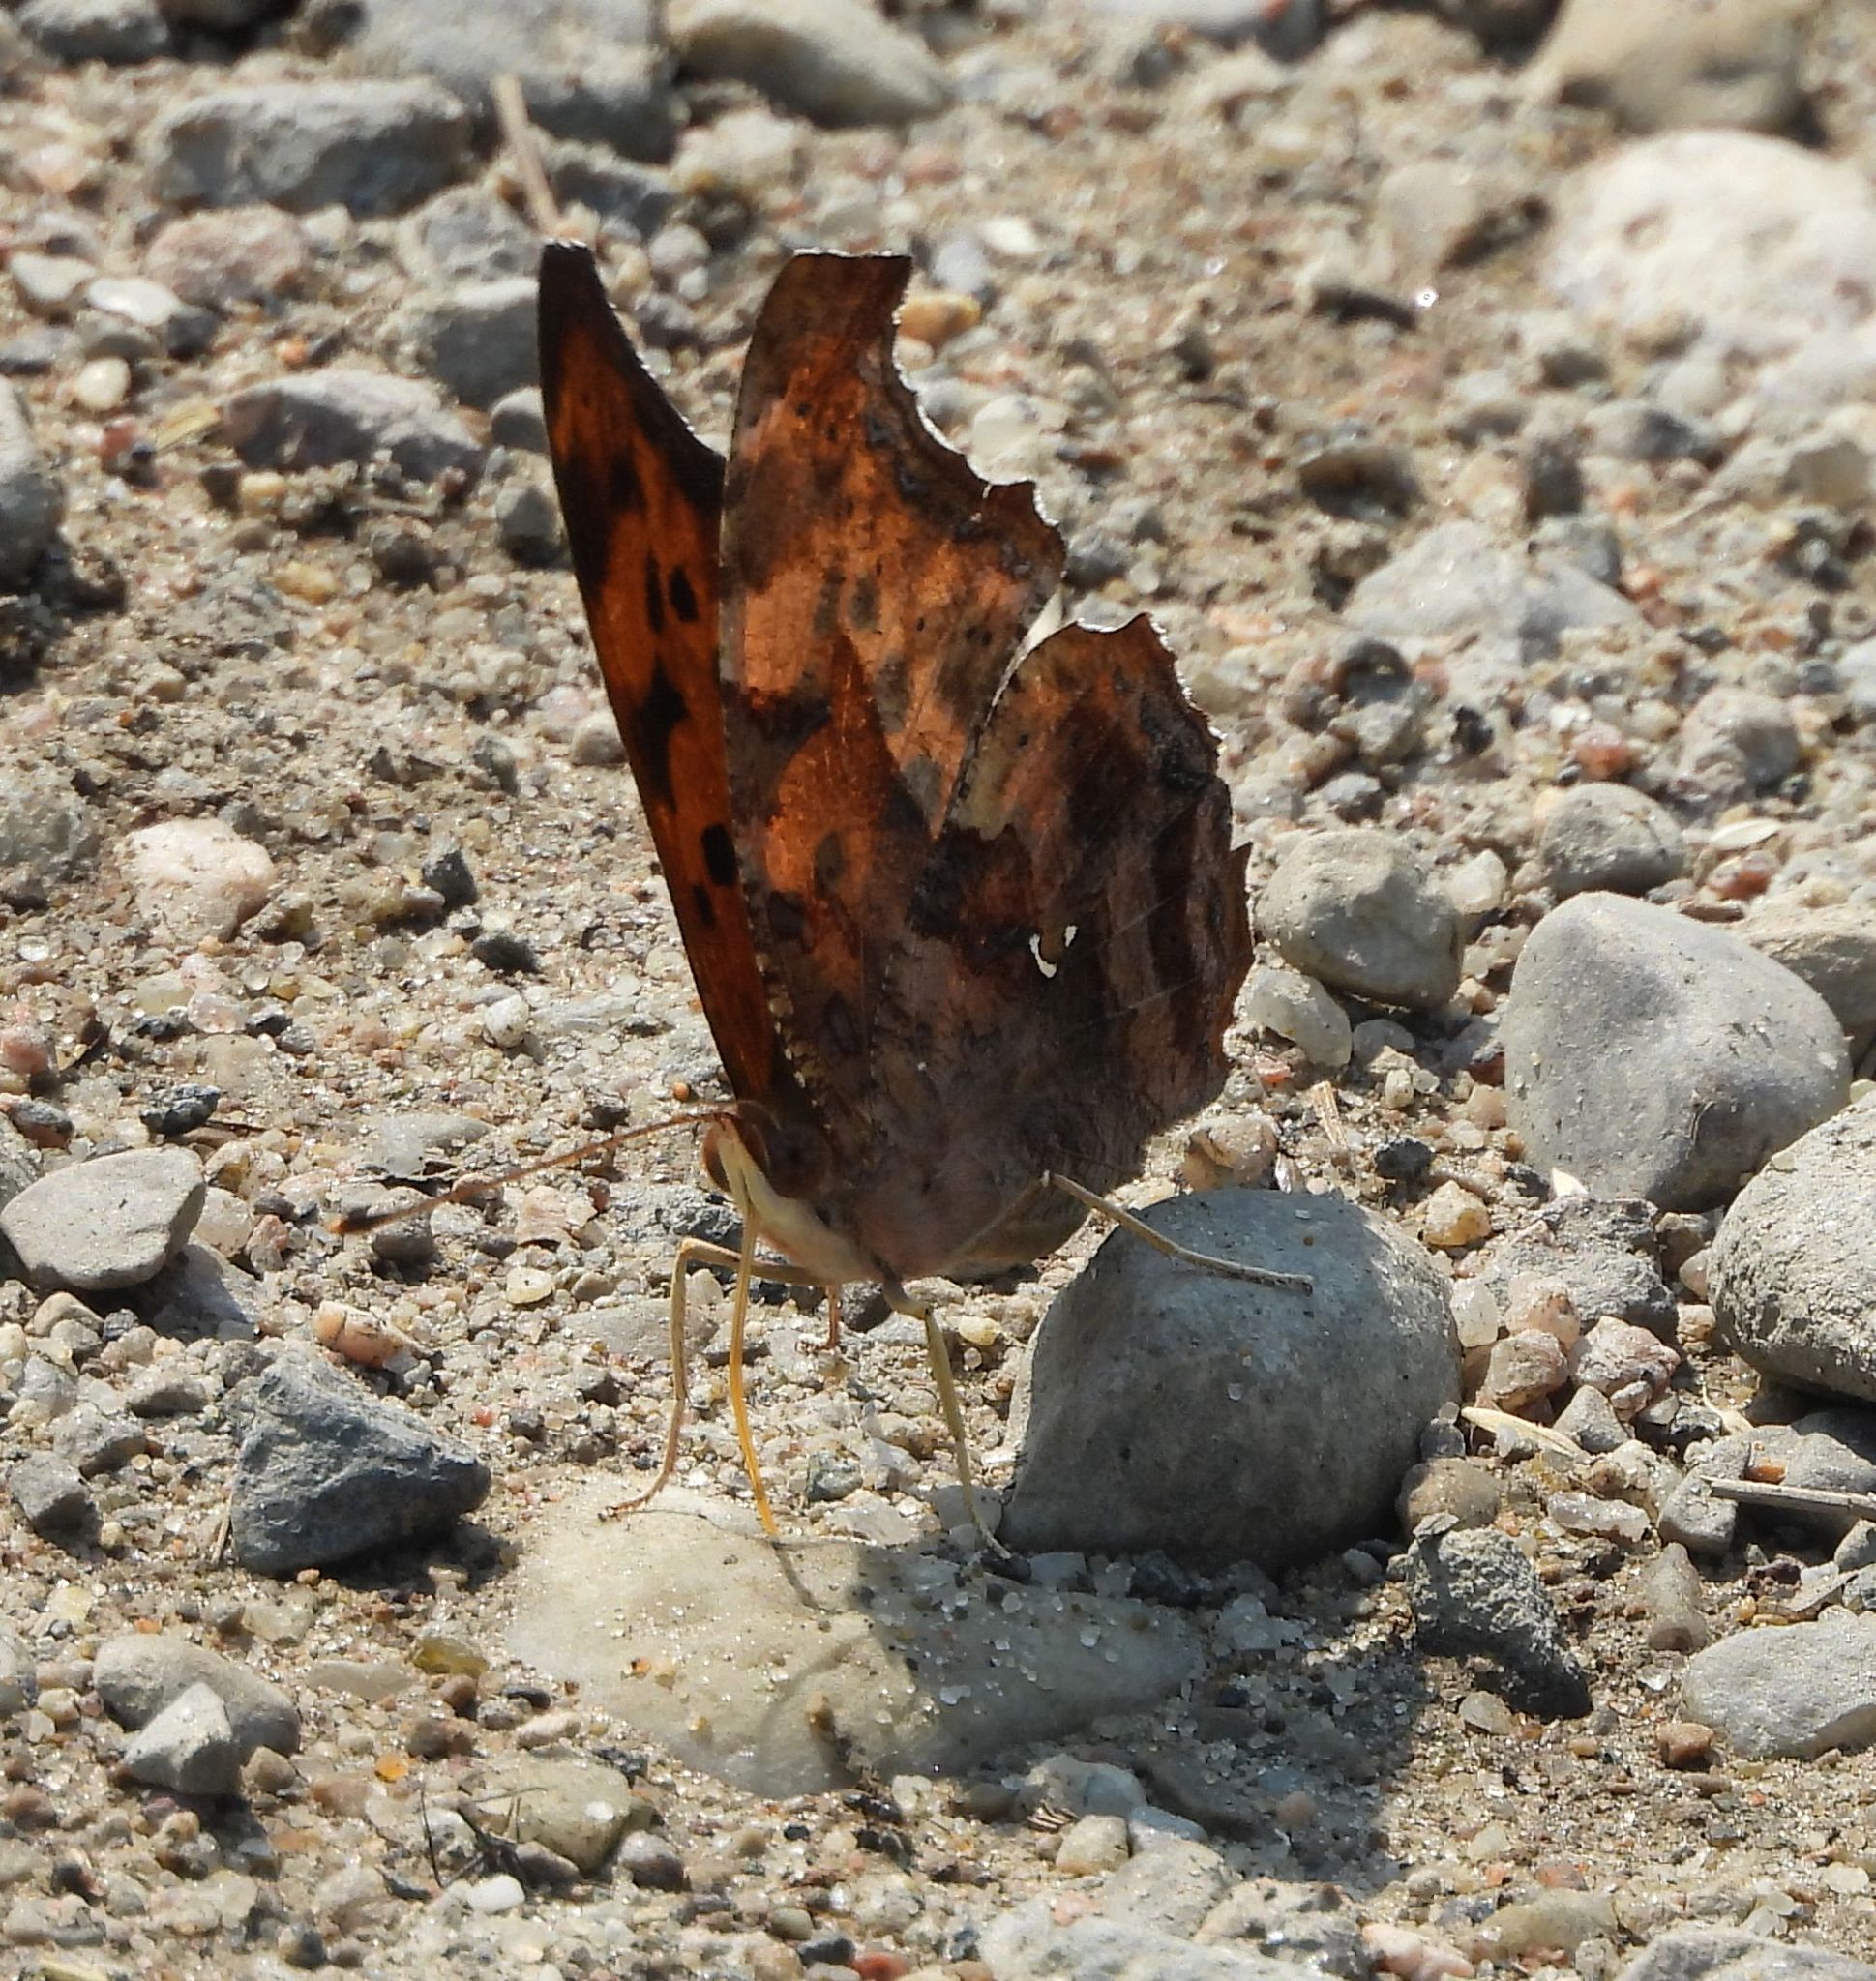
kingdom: Animalia
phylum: Arthropoda
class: Insecta
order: Lepidoptera
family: Nymphalidae
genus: Polygonia
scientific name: Polygonia interrogationis
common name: Question mark
